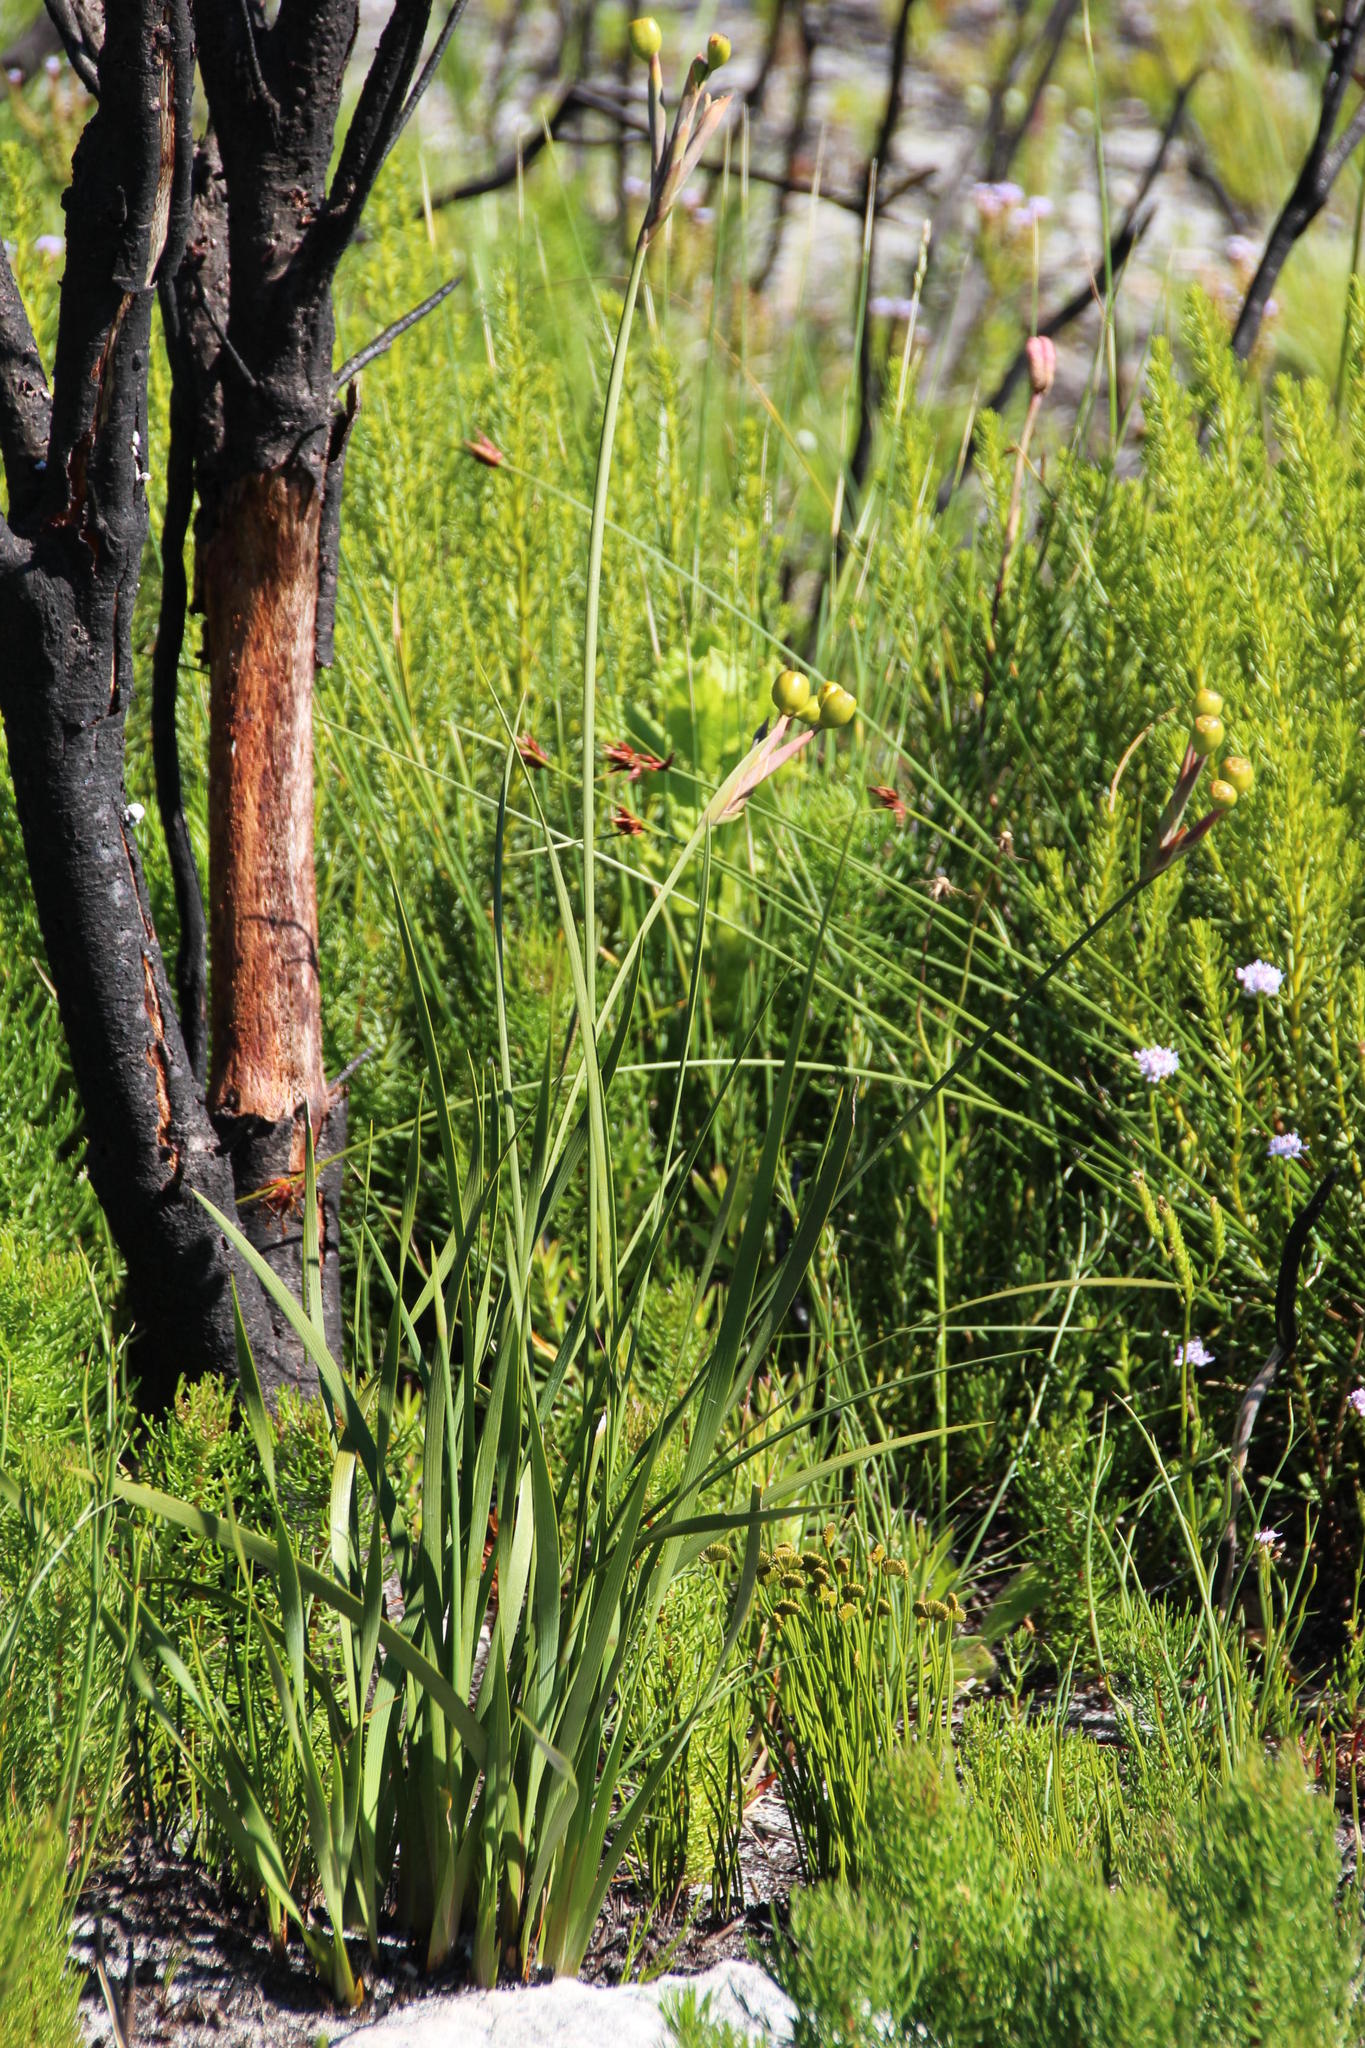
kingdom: Plantae
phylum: Tracheophyta
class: Liliopsida
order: Asparagales
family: Iridaceae
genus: Bobartia
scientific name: Bobartia gladiata
